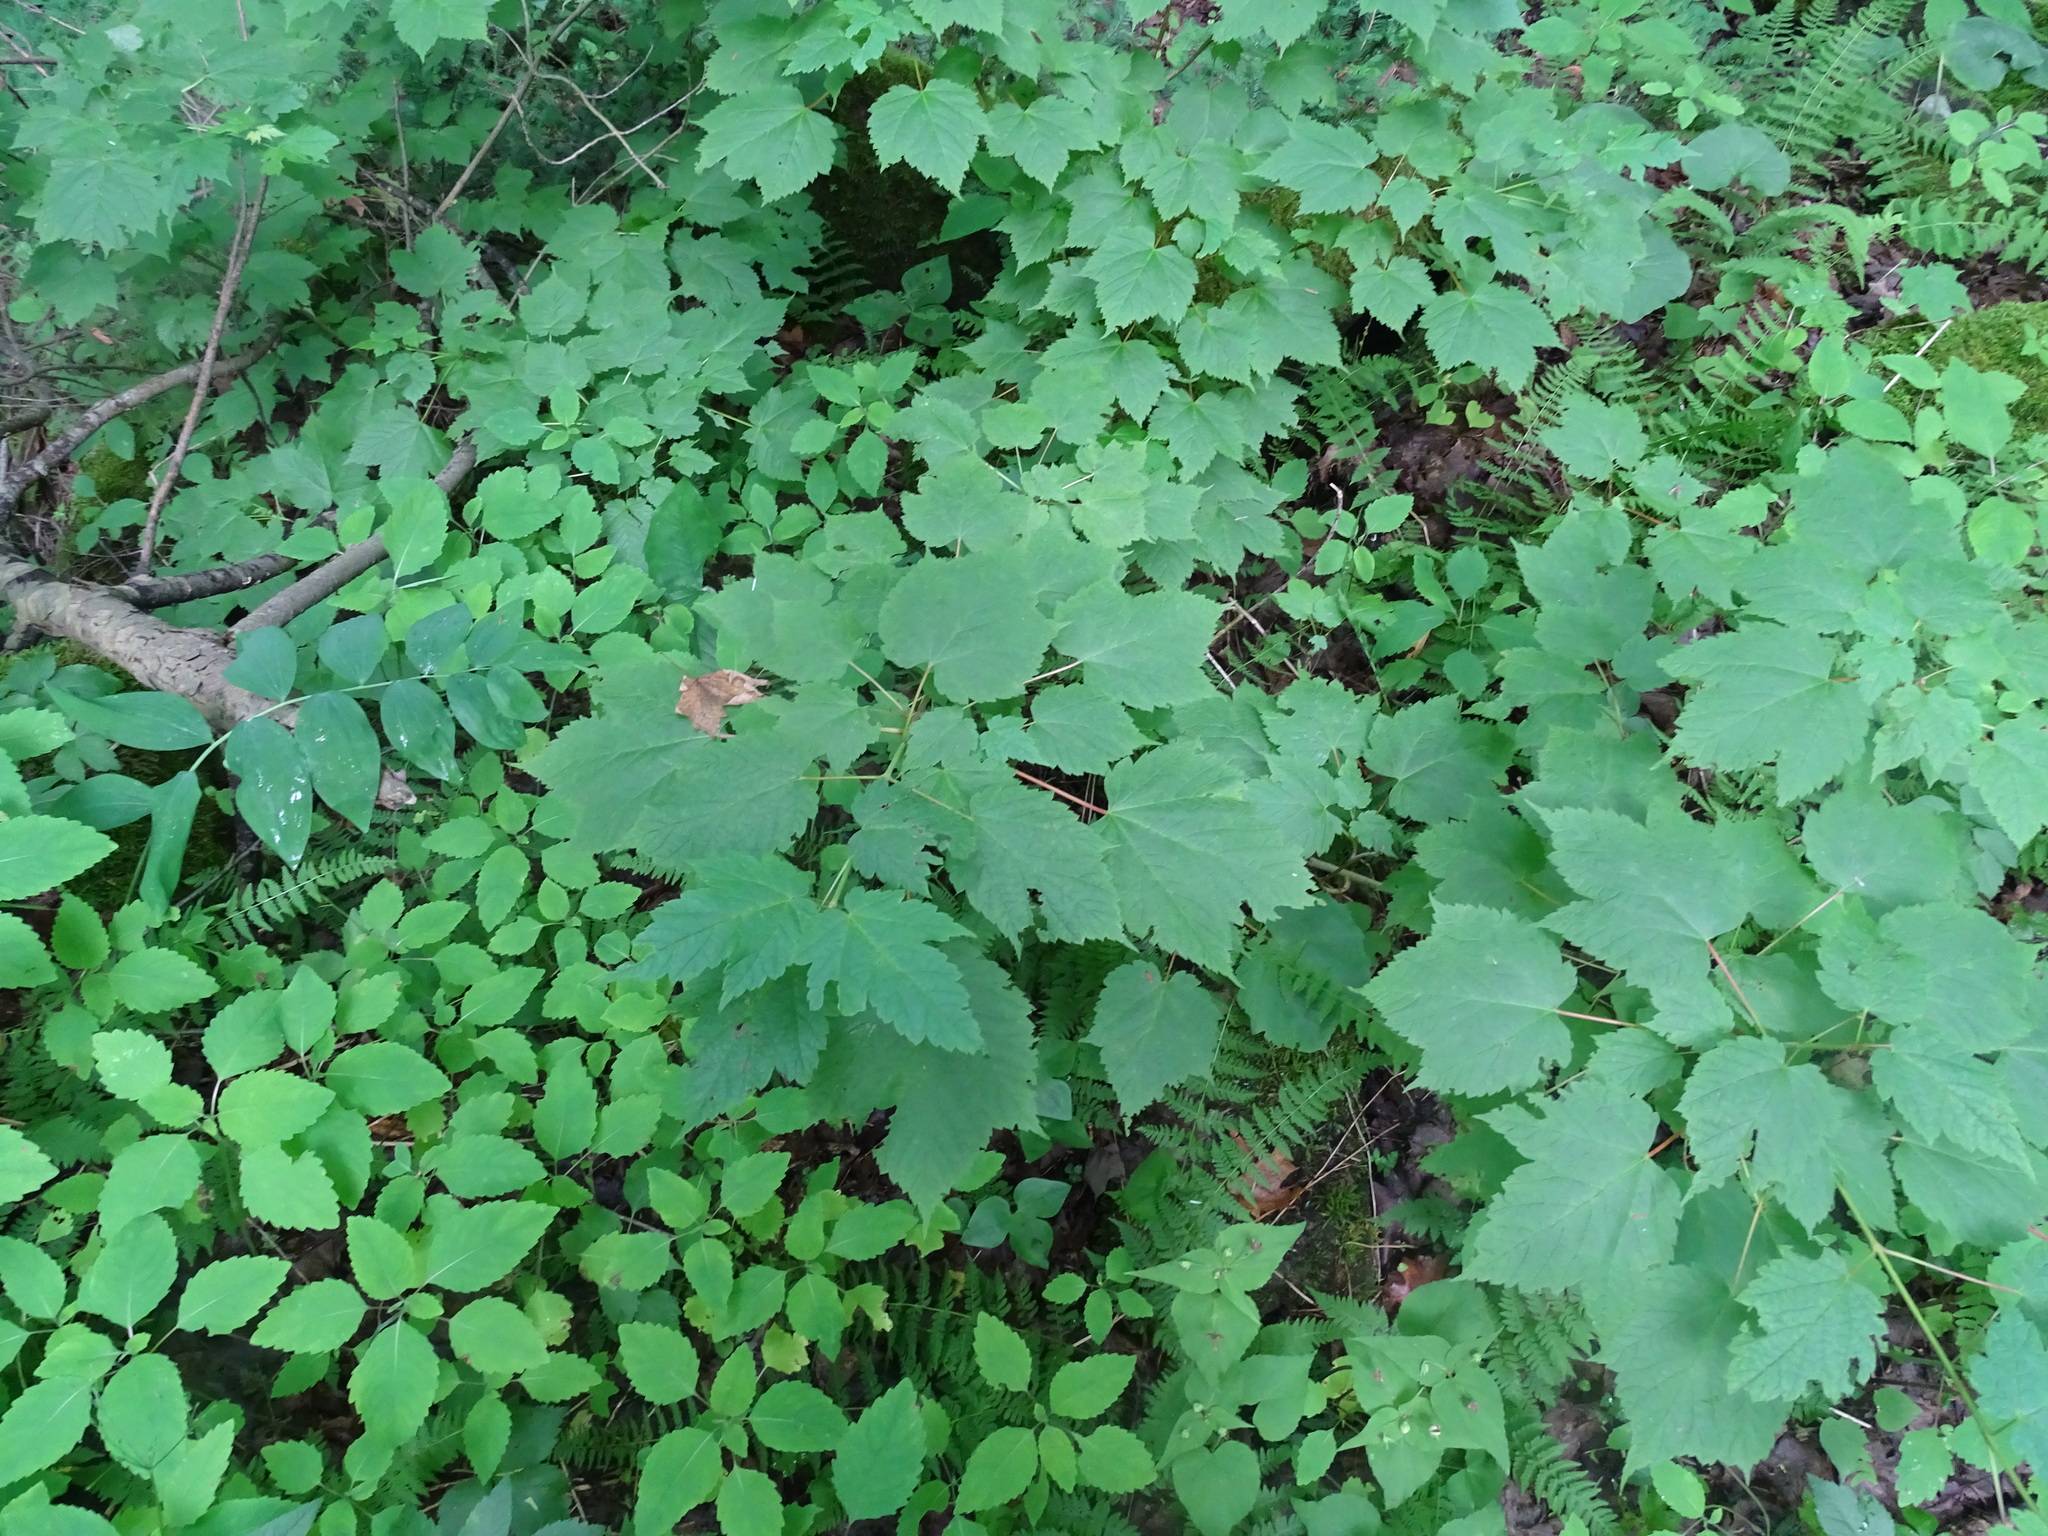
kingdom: Plantae
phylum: Tracheophyta
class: Magnoliopsida
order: Sapindales
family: Sapindaceae
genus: Acer
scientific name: Acer spicatum
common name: Mountain maple
